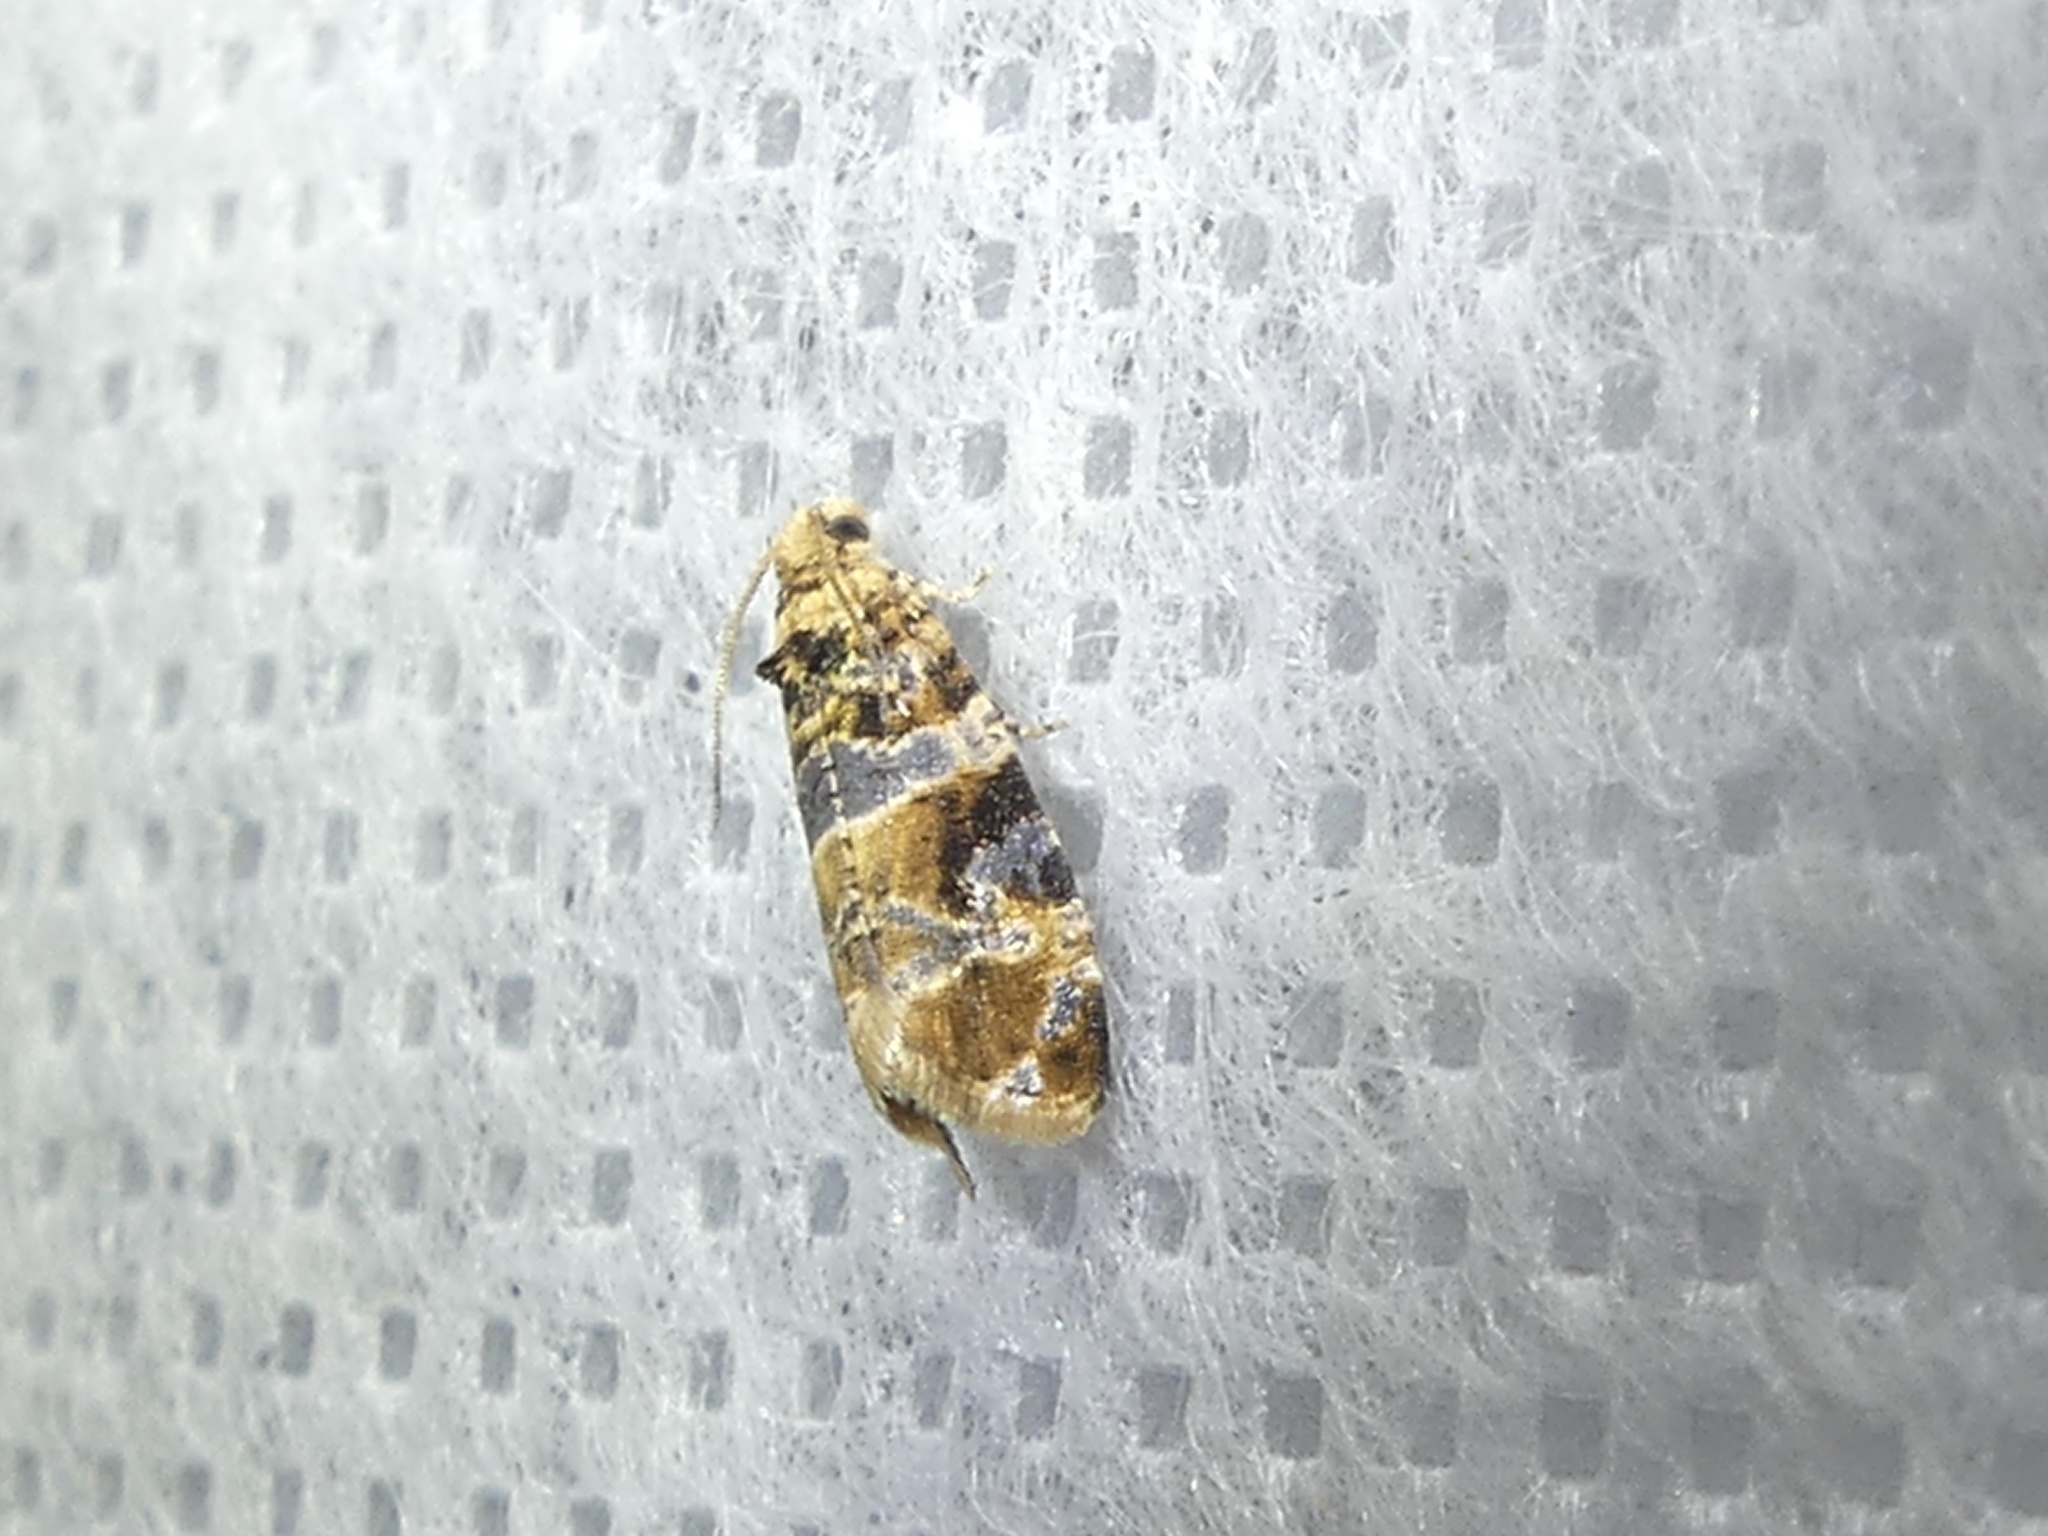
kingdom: Animalia
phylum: Arthropoda
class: Insecta
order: Lepidoptera
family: Tortricidae
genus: Lobesia
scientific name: Lobesia botrana
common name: European vine moth
